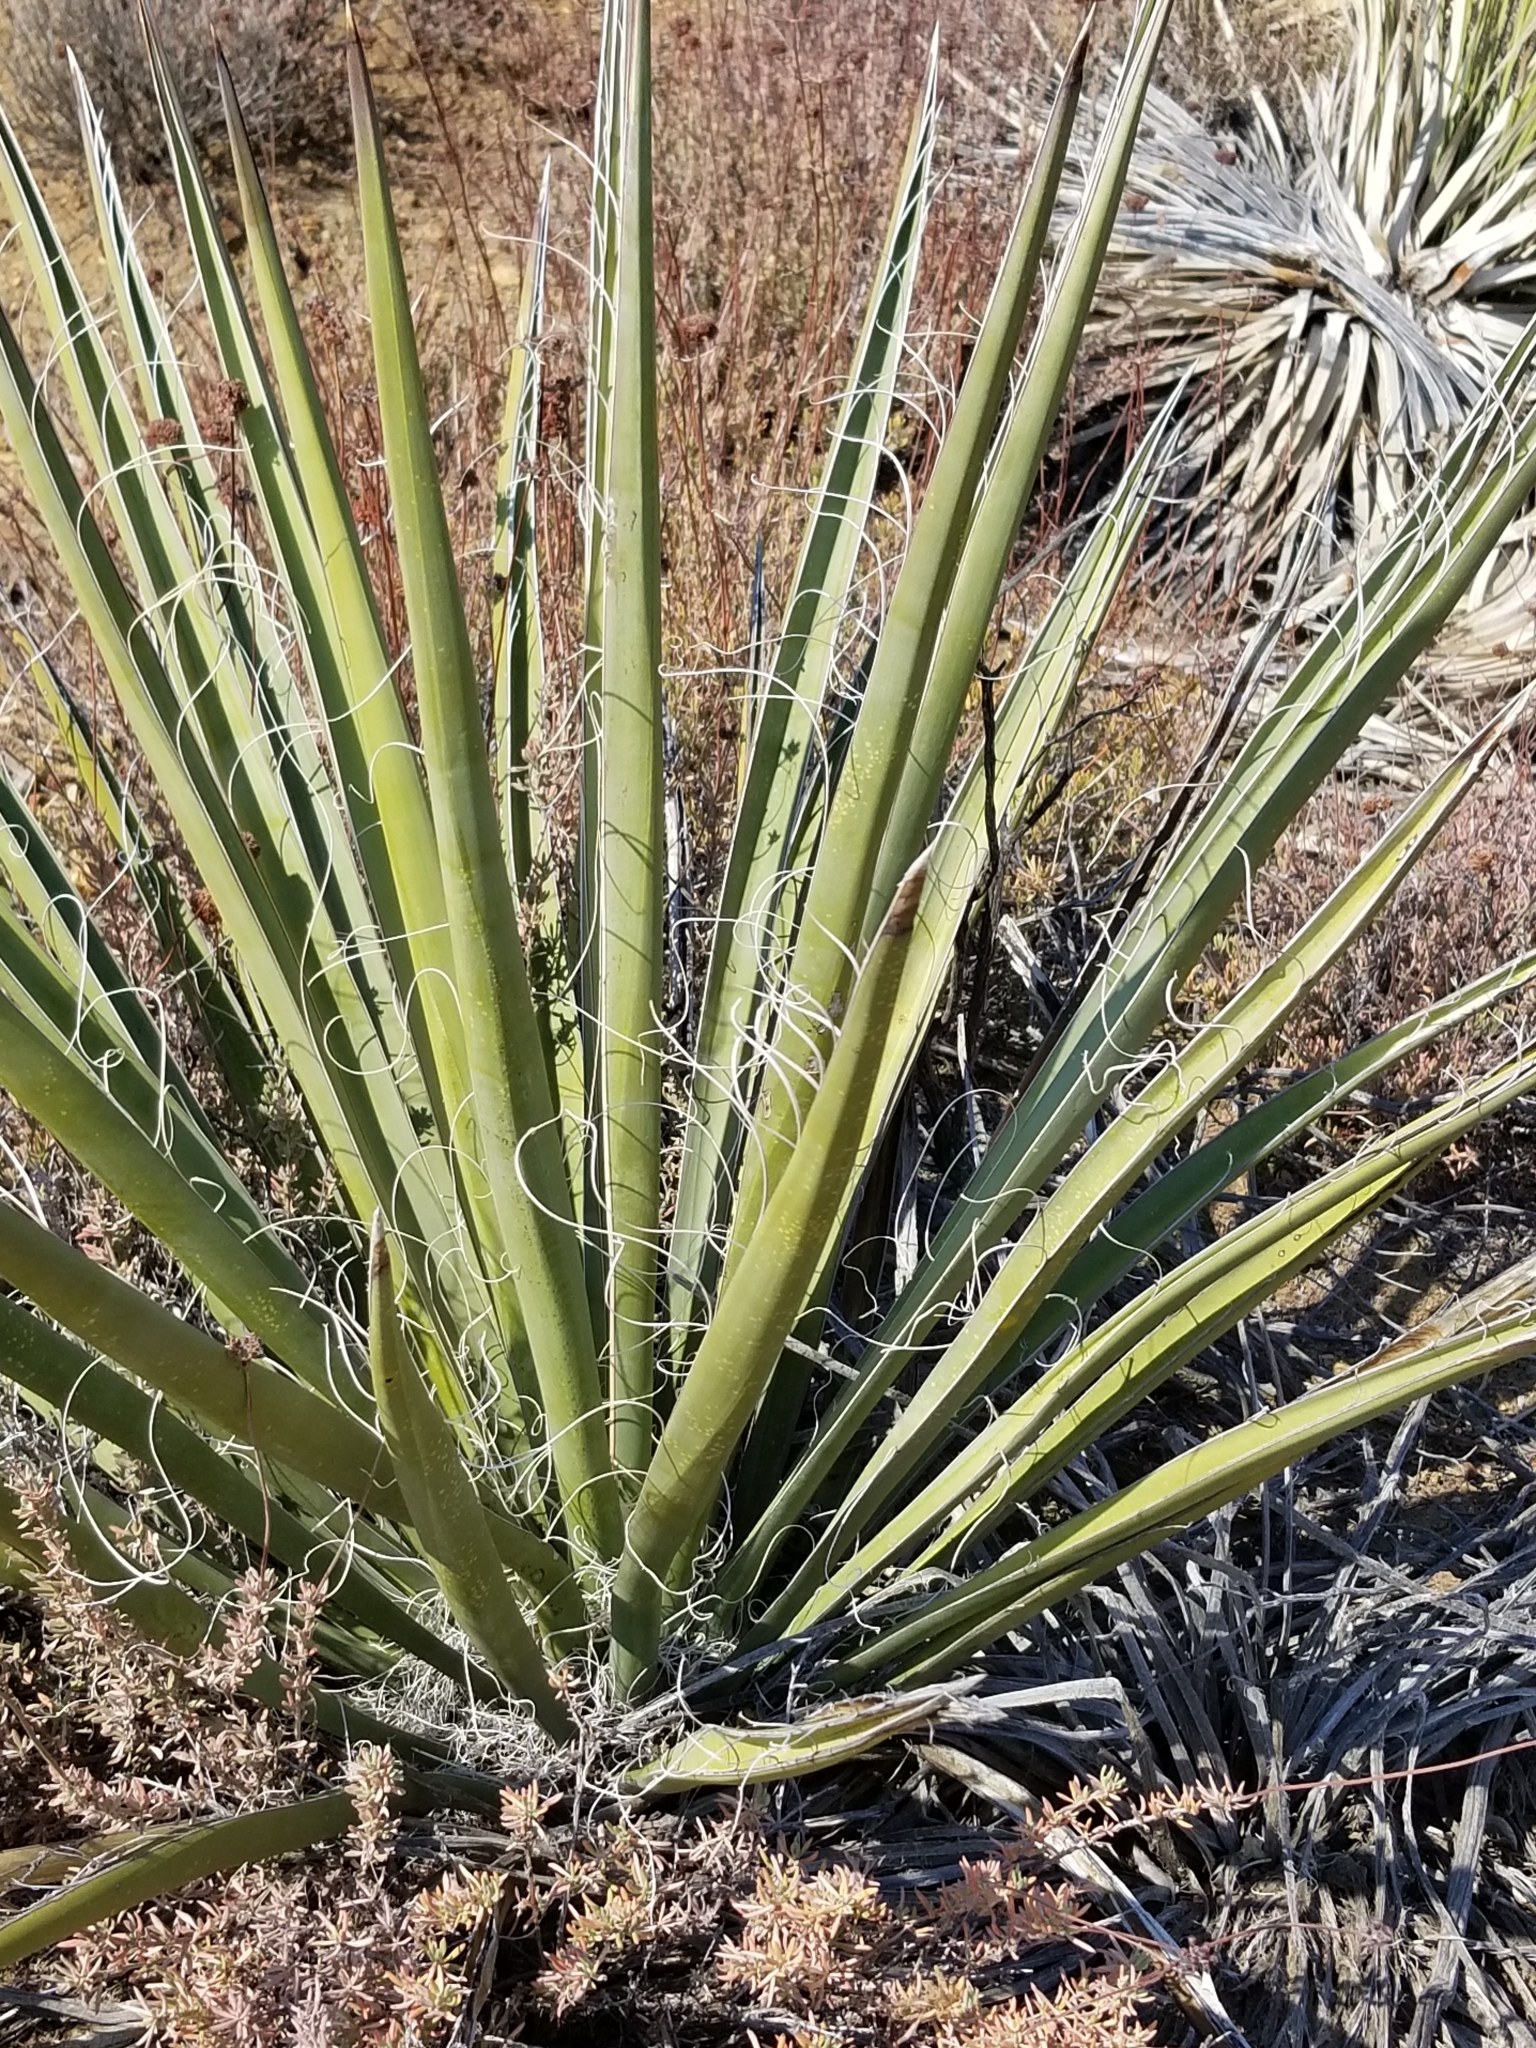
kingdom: Plantae
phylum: Tracheophyta
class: Liliopsida
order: Asparagales
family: Asparagaceae
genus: Yucca
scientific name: Yucca schidigera
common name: Mojave yucca
